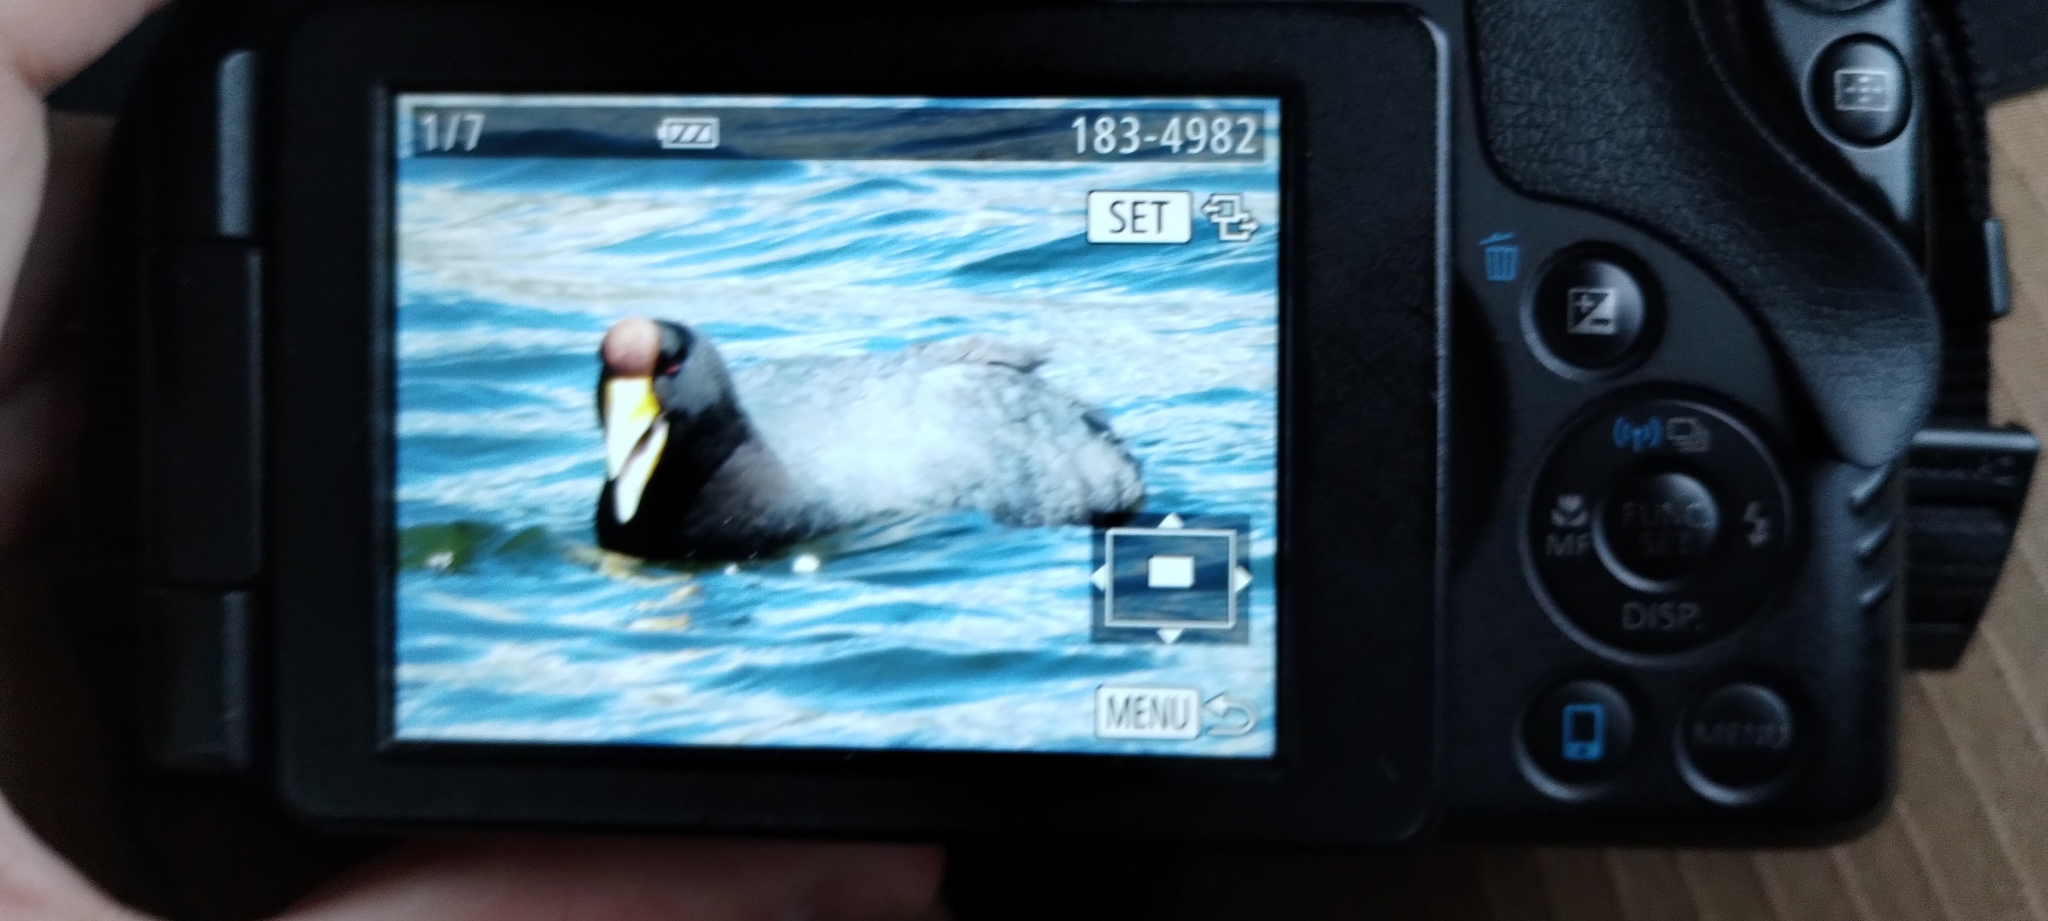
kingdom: Animalia
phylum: Chordata
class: Aves
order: Gruiformes
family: Rallidae
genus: Fulica
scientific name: Fulica ardesiaca
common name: Andean coot
